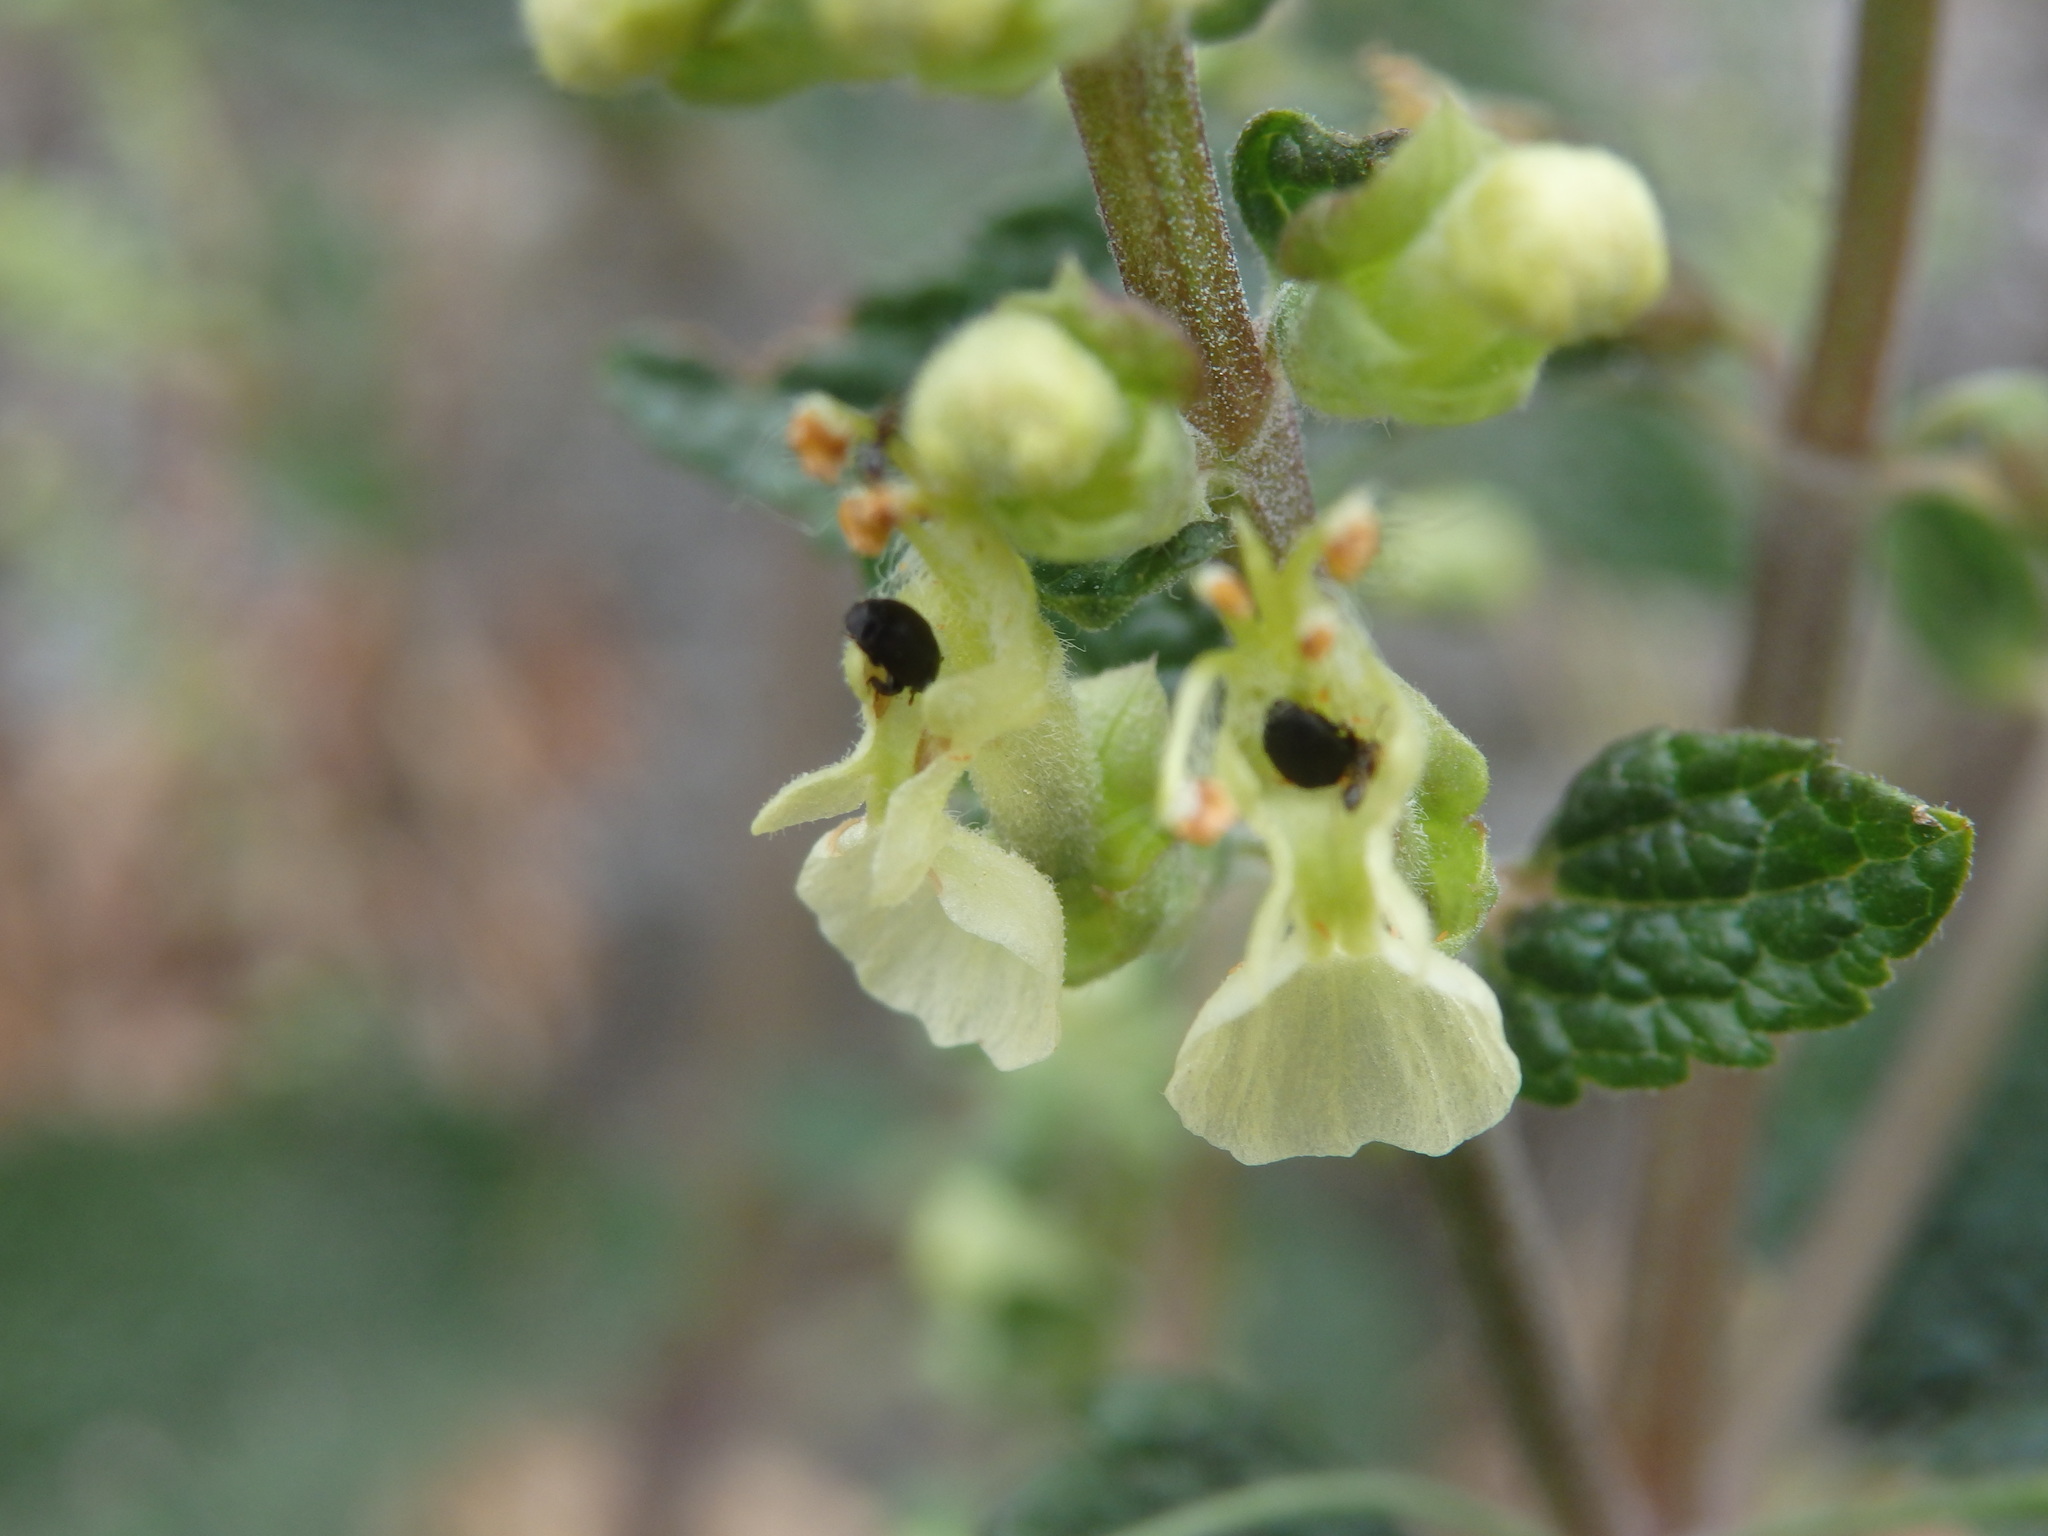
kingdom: Plantae
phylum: Tracheophyta
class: Magnoliopsida
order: Lamiales
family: Lamiaceae
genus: Teucrium
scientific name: Teucrium scorodonia
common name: Woodland germander
